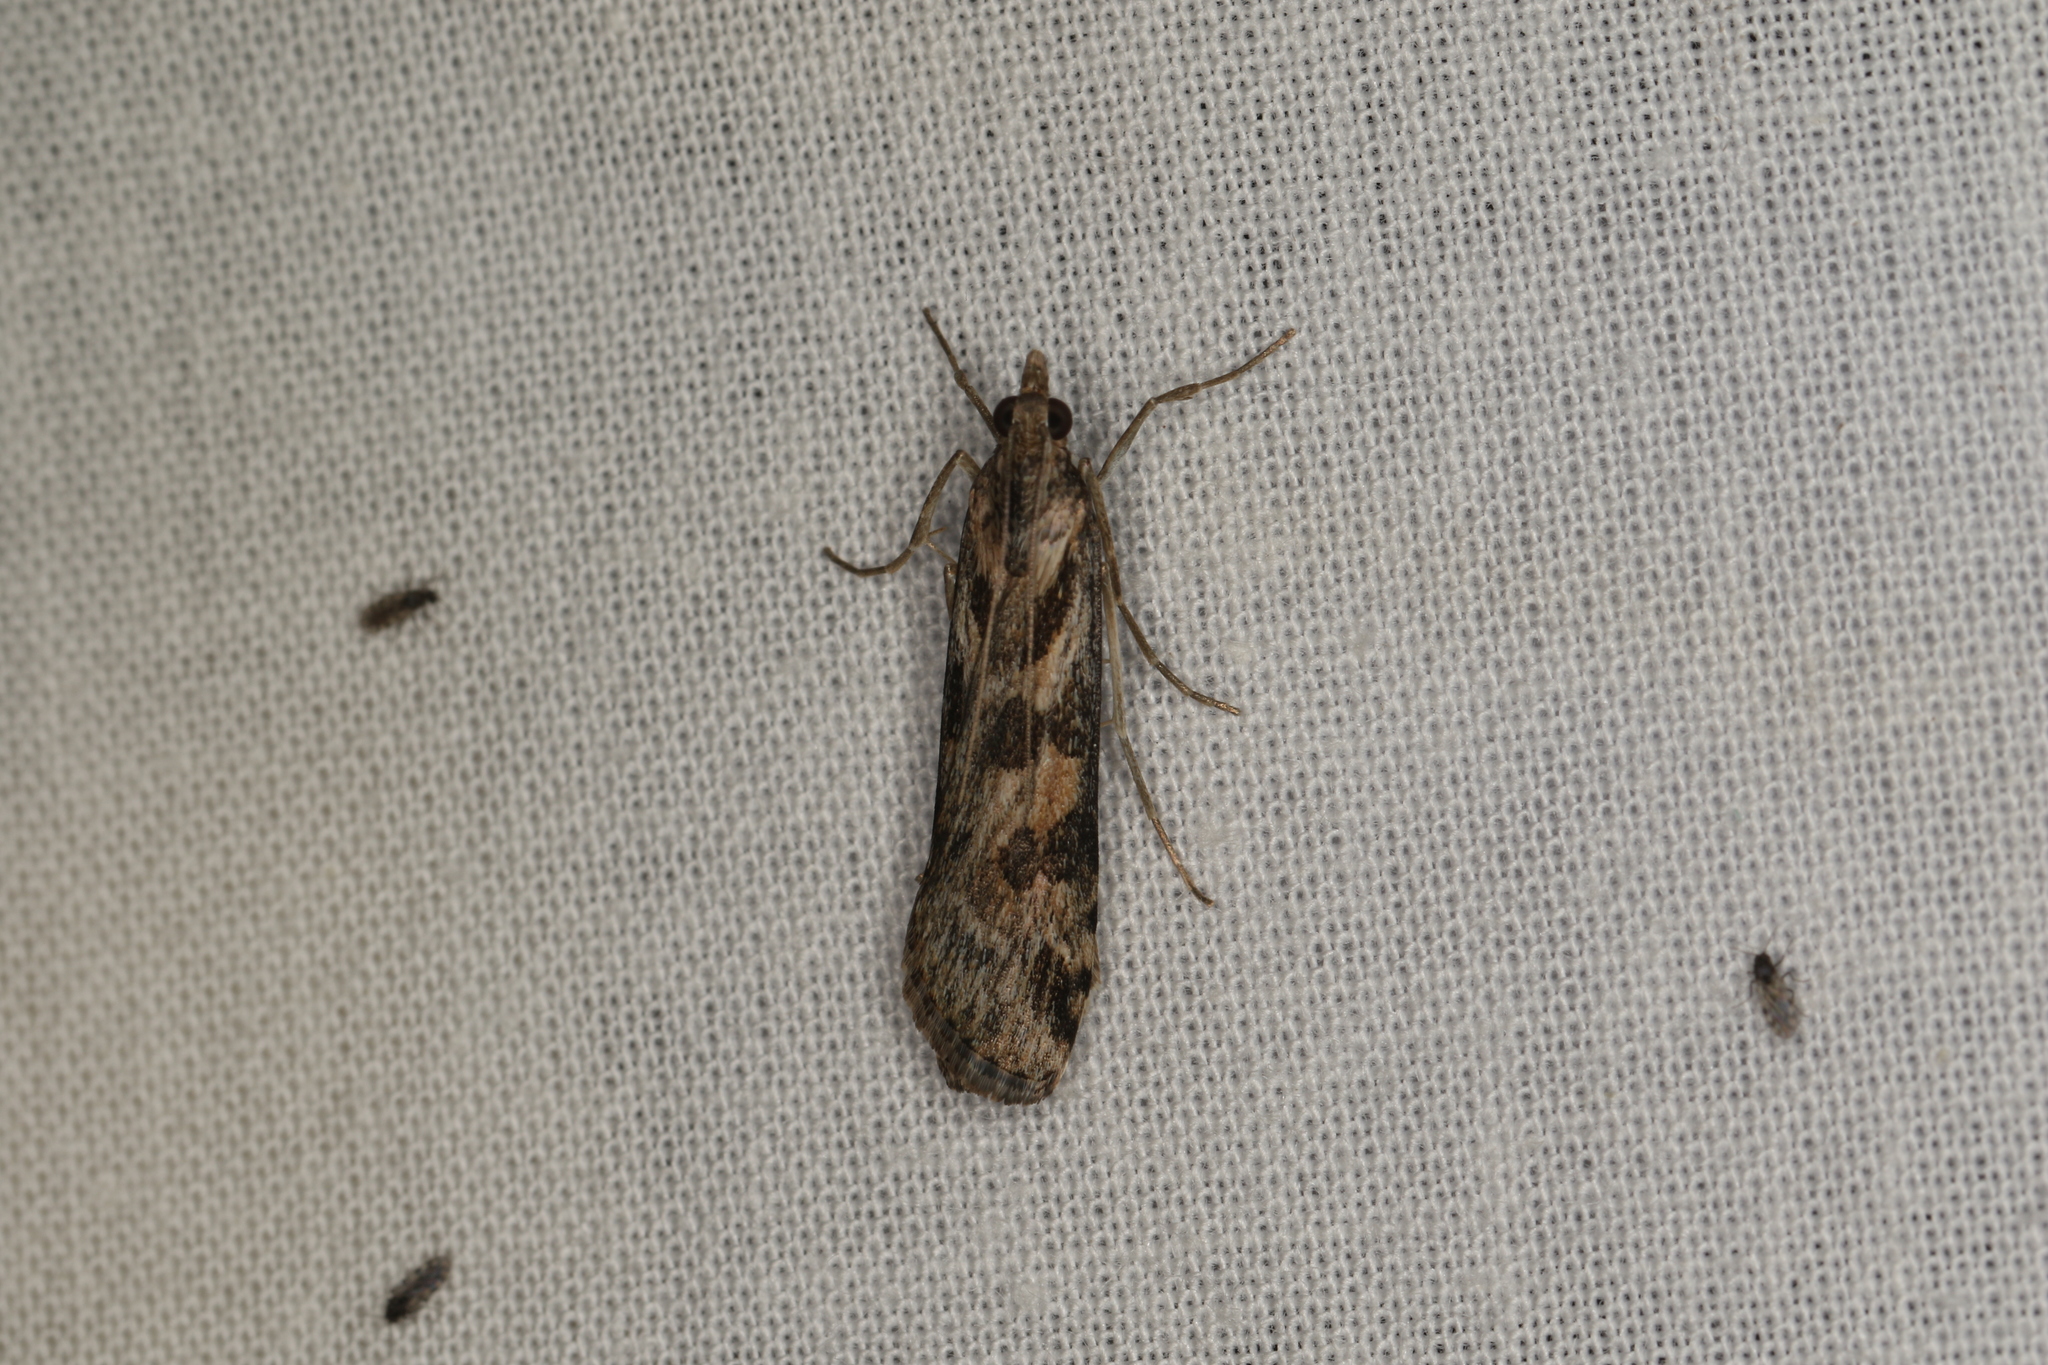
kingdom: Animalia
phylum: Arthropoda
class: Insecta
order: Lepidoptera
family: Crambidae
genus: Nomophila
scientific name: Nomophila corticalis
